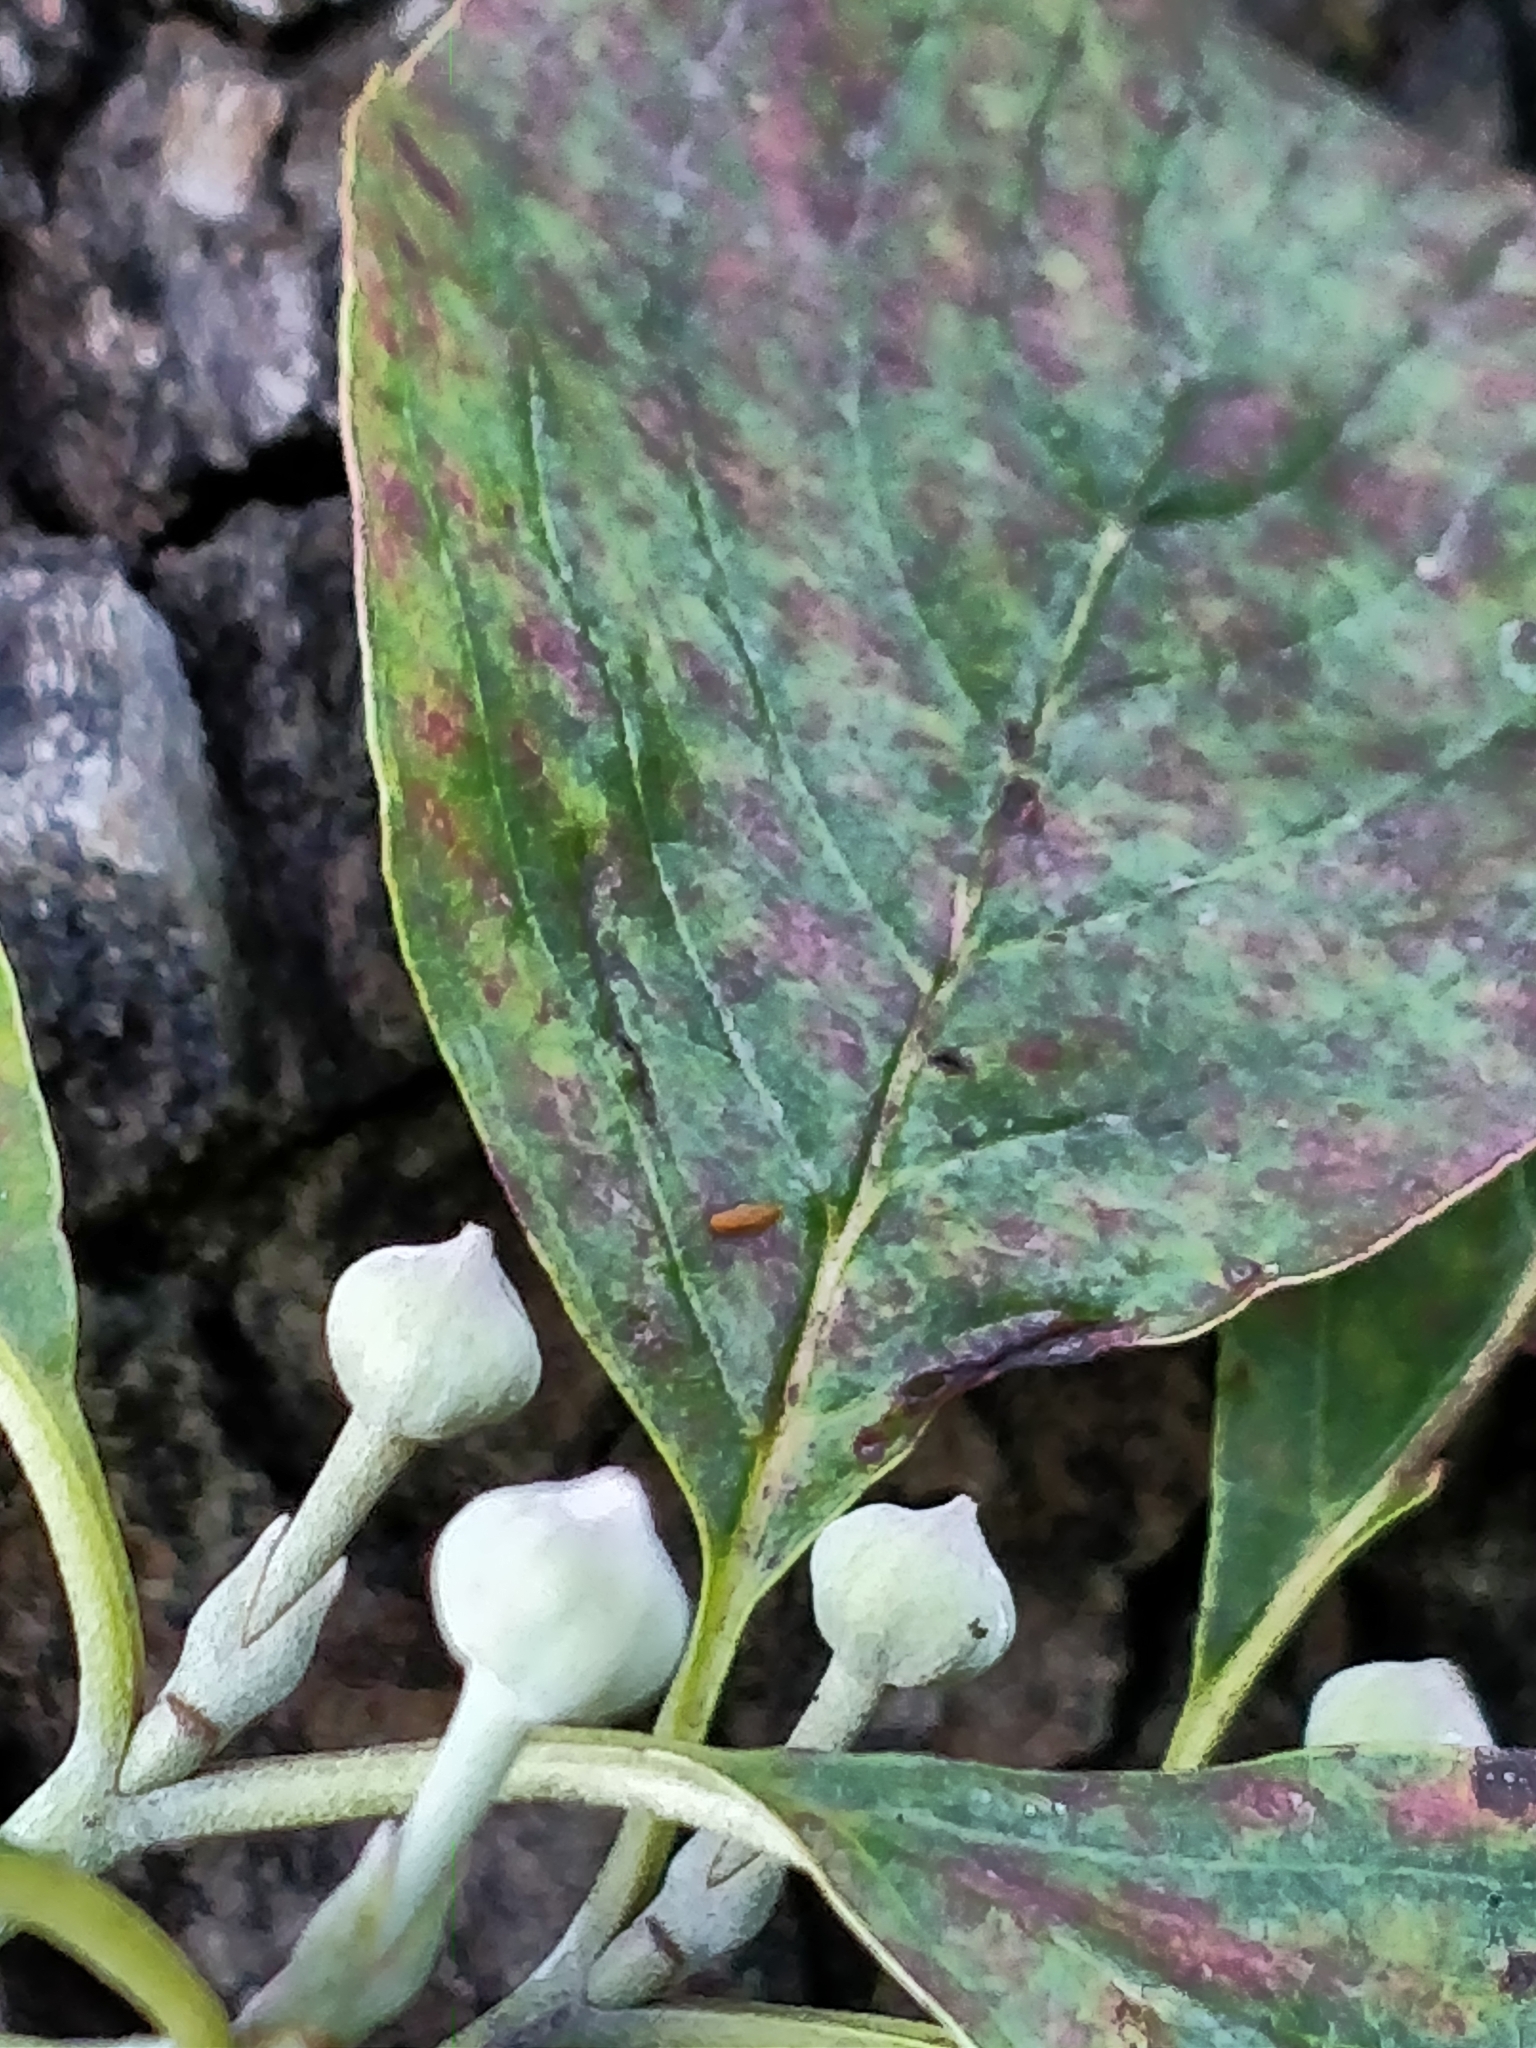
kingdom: Plantae
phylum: Tracheophyta
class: Magnoliopsida
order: Cornales
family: Cornaceae
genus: Cornus
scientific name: Cornus florida
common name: Flowering dogwood
